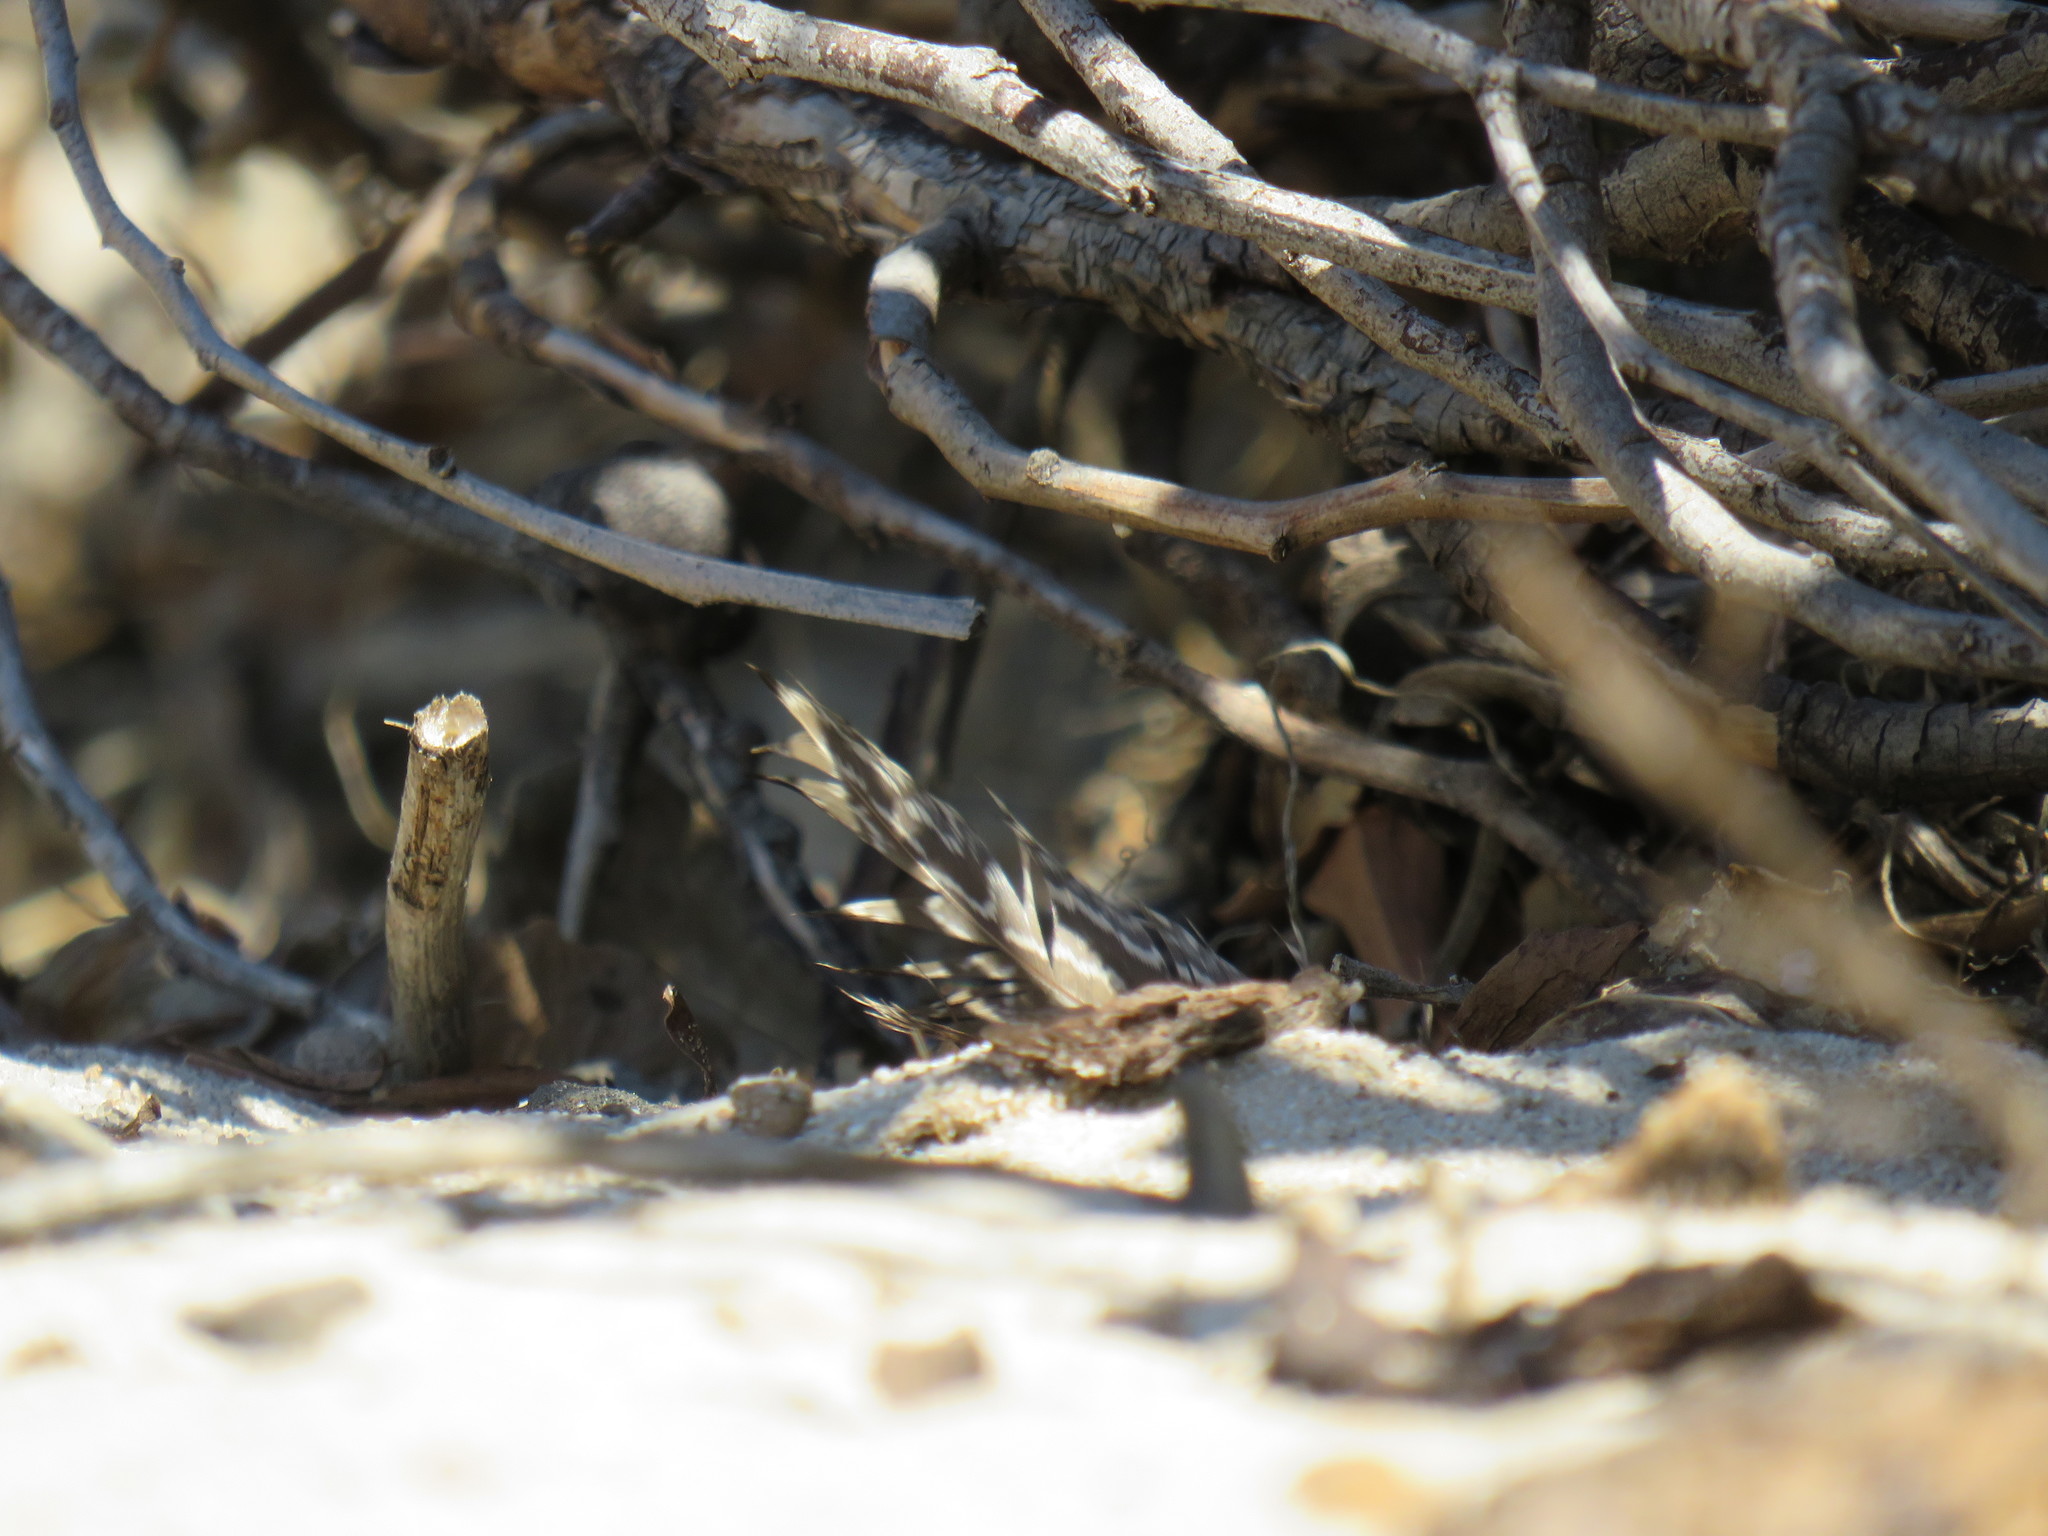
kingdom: Animalia
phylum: Chordata
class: Aves
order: Galliformes
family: Phasianidae
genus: Pternistis
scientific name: Pternistis capensis
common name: Cape spurfowl
